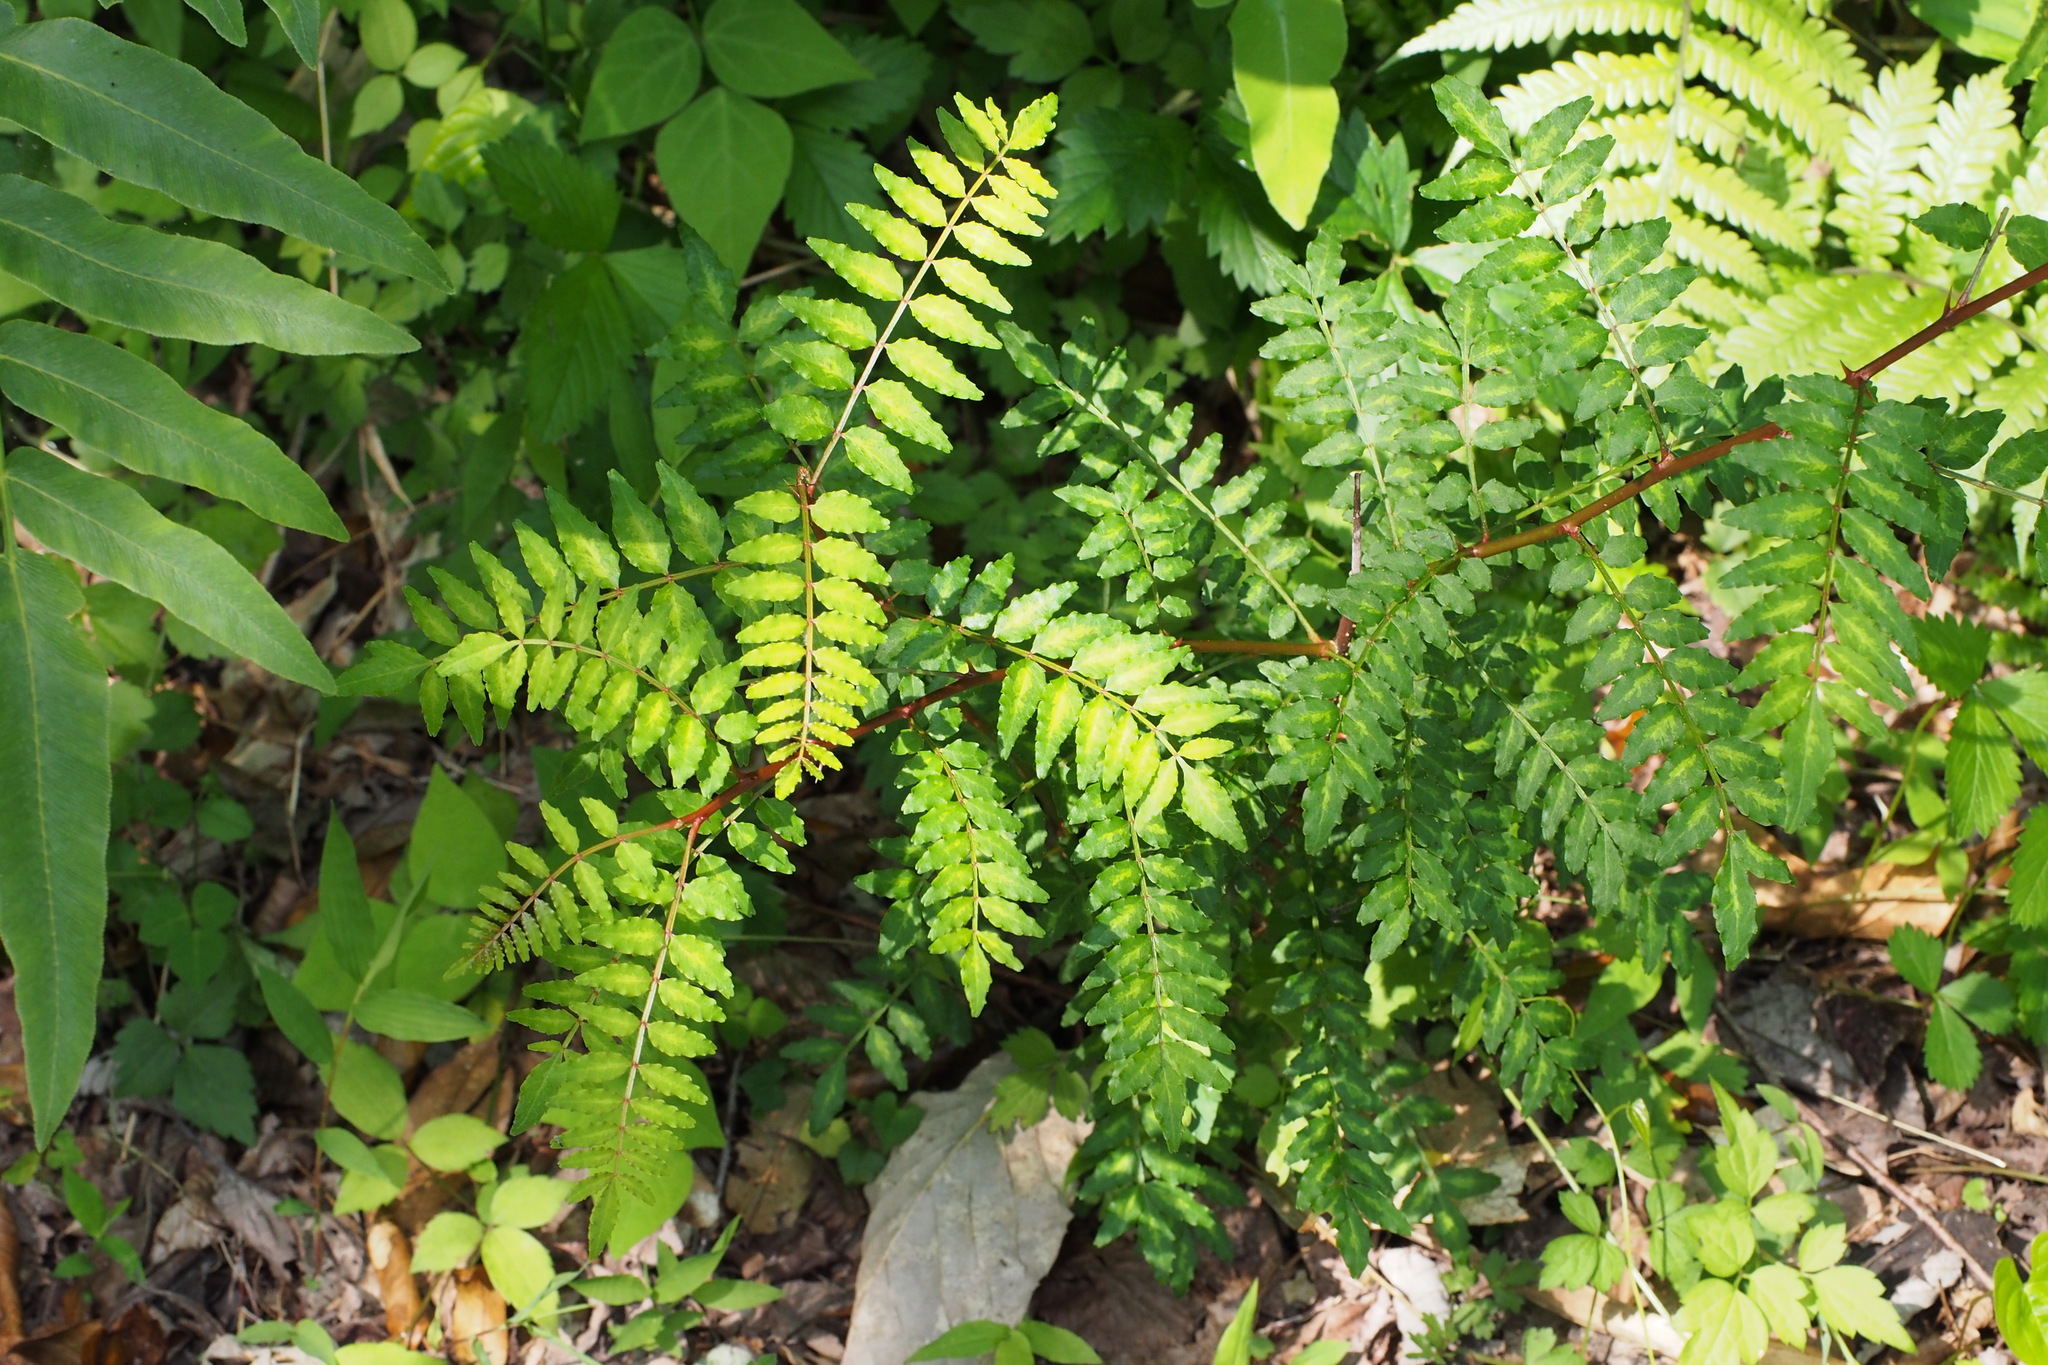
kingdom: Plantae
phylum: Tracheophyta
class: Magnoliopsida
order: Sapindales
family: Rutaceae
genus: Zanthoxylum
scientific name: Zanthoxylum piperitum
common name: Japanese-pepper
